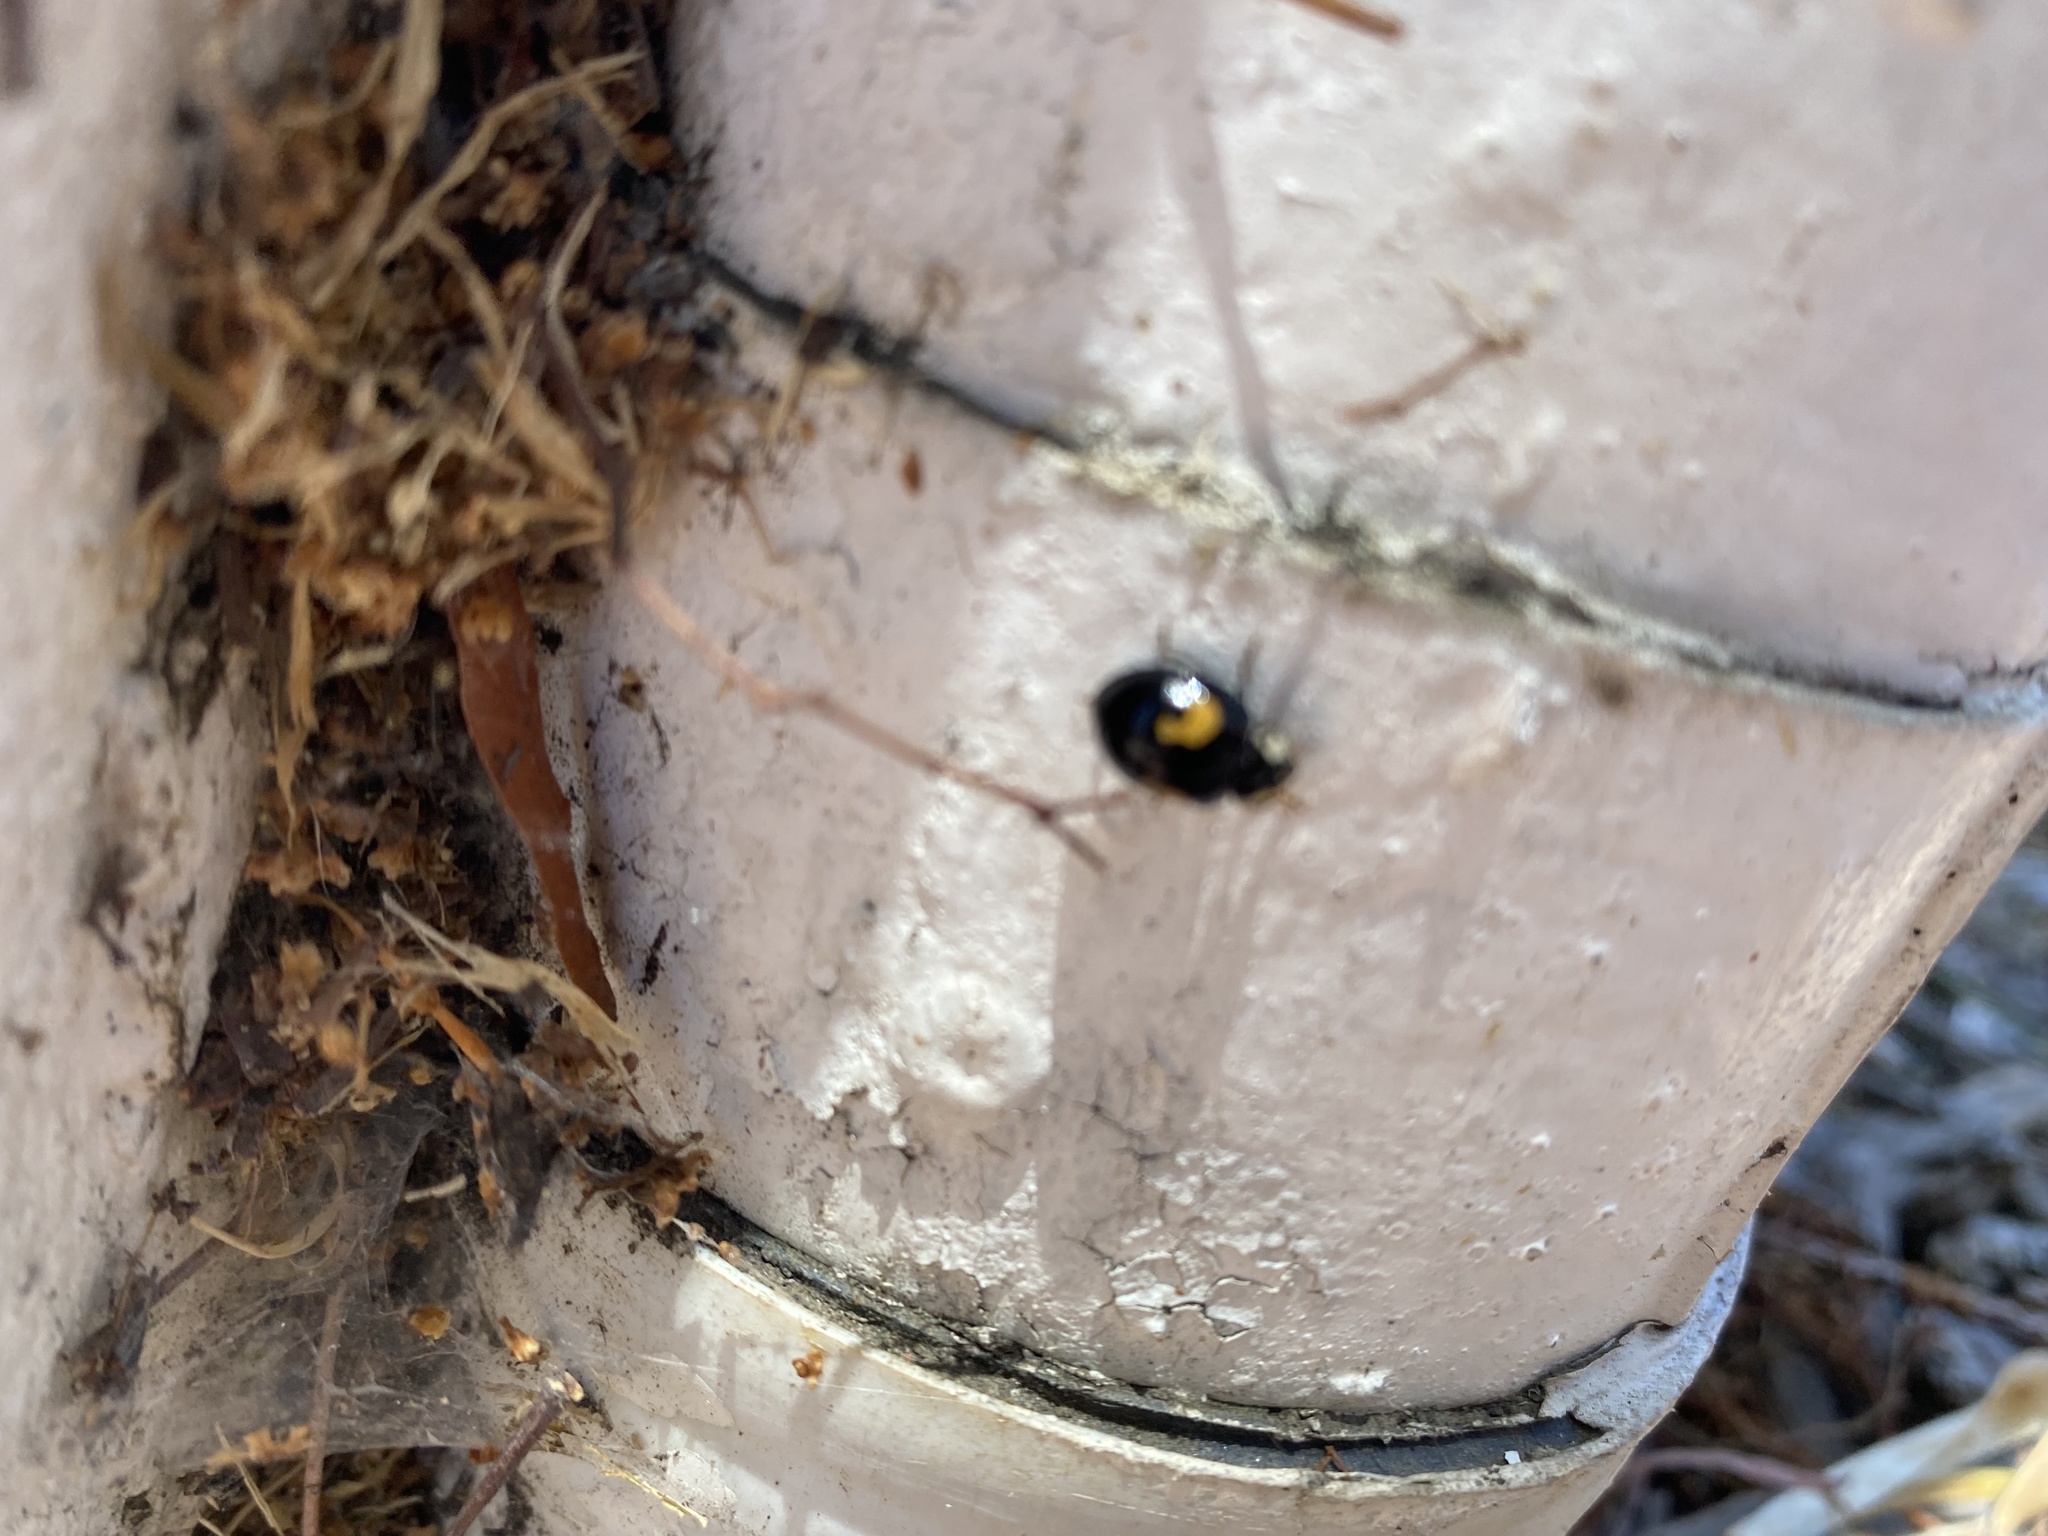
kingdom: Animalia
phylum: Arthropoda
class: Insecta
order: Coleoptera
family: Coccinellidae
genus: Harmonia
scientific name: Harmonia axyridis
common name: Harlequin ladybird
